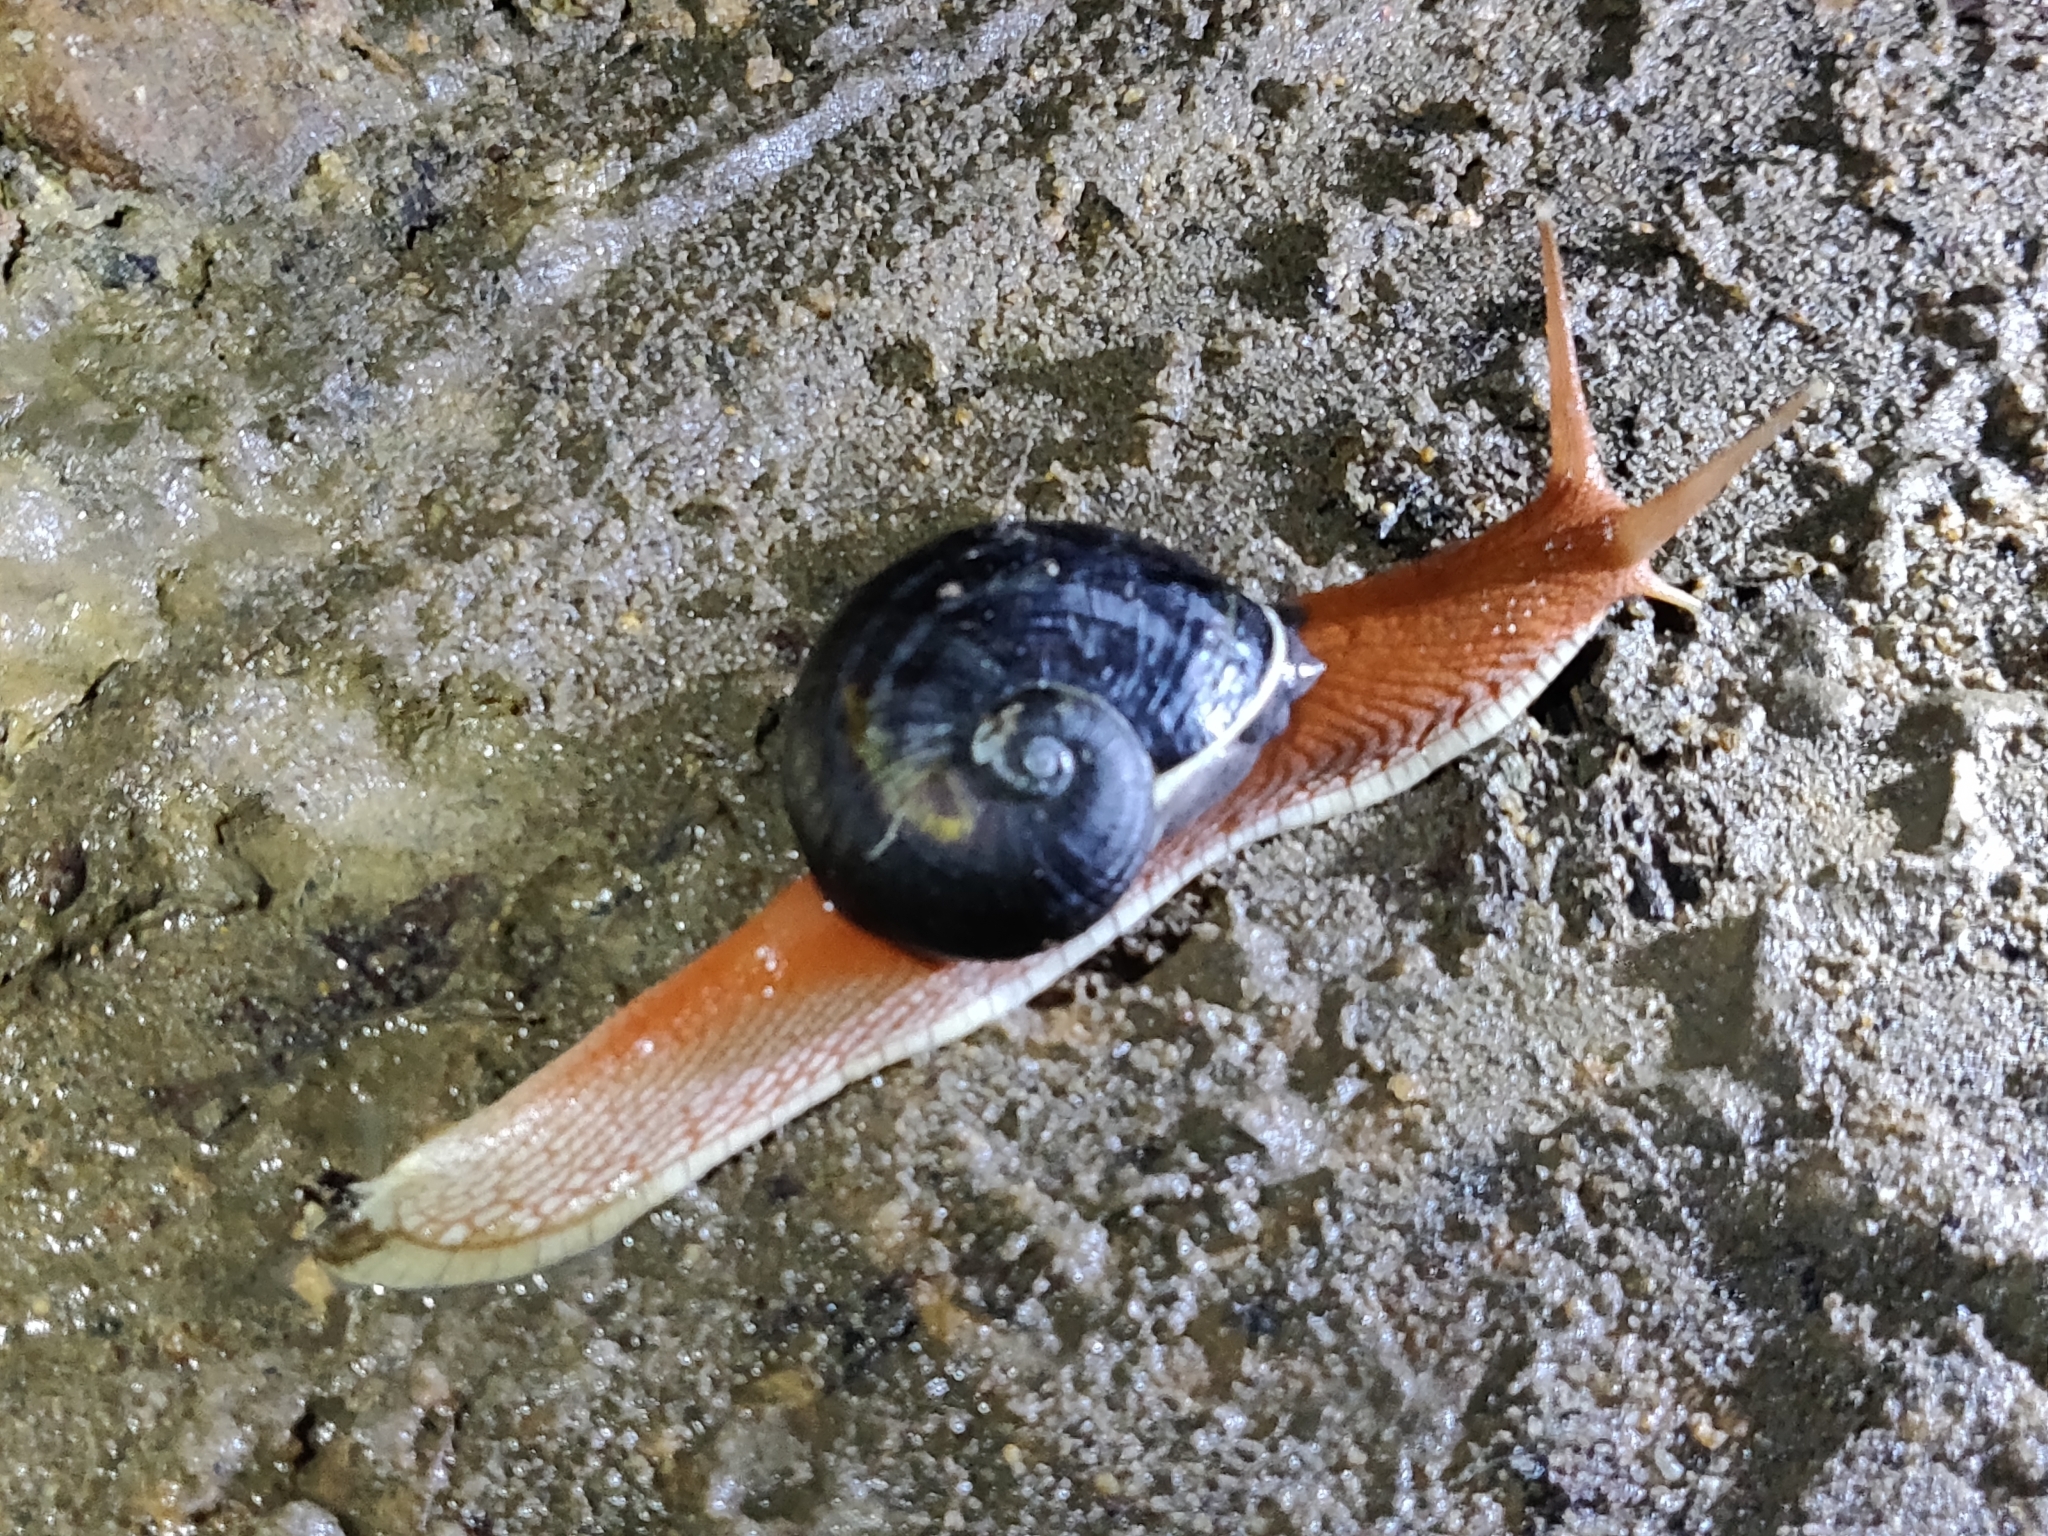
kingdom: Animalia
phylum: Mollusca
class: Gastropoda
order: Stylommatophora
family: Ariophantidae
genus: Indrella
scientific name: Indrella ampulla
